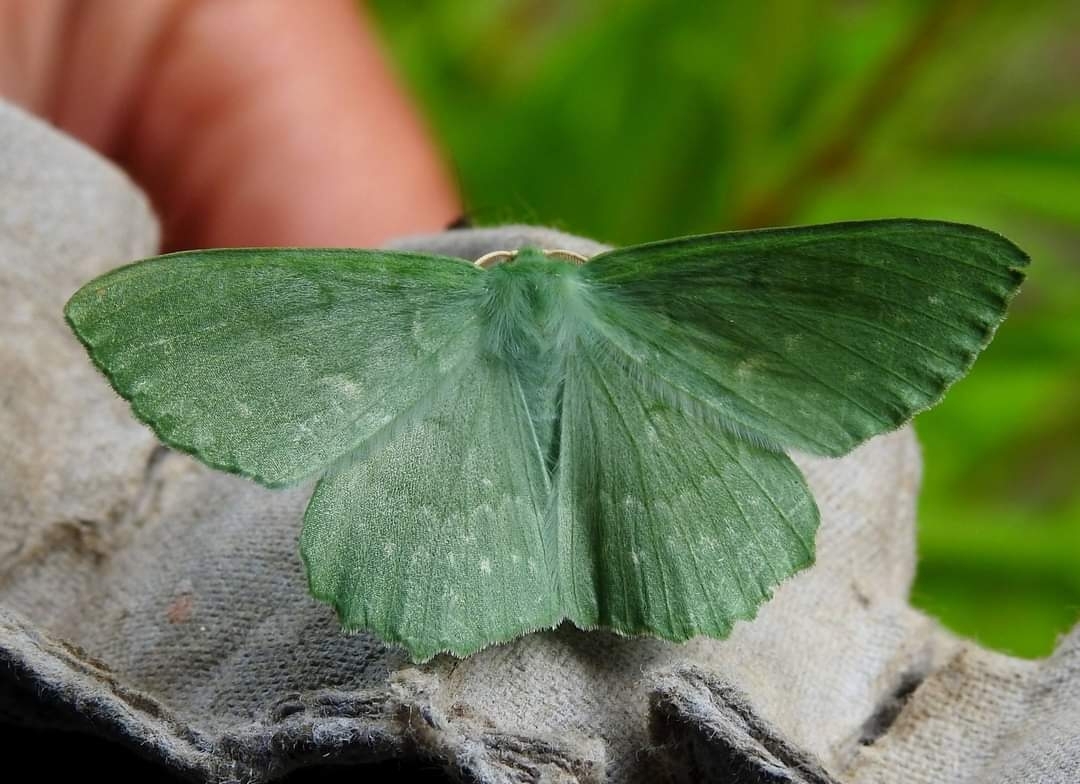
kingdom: Animalia
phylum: Arthropoda
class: Insecta
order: Lepidoptera
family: Geometridae
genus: Geometra
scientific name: Geometra papilionaria
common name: Large emerald
